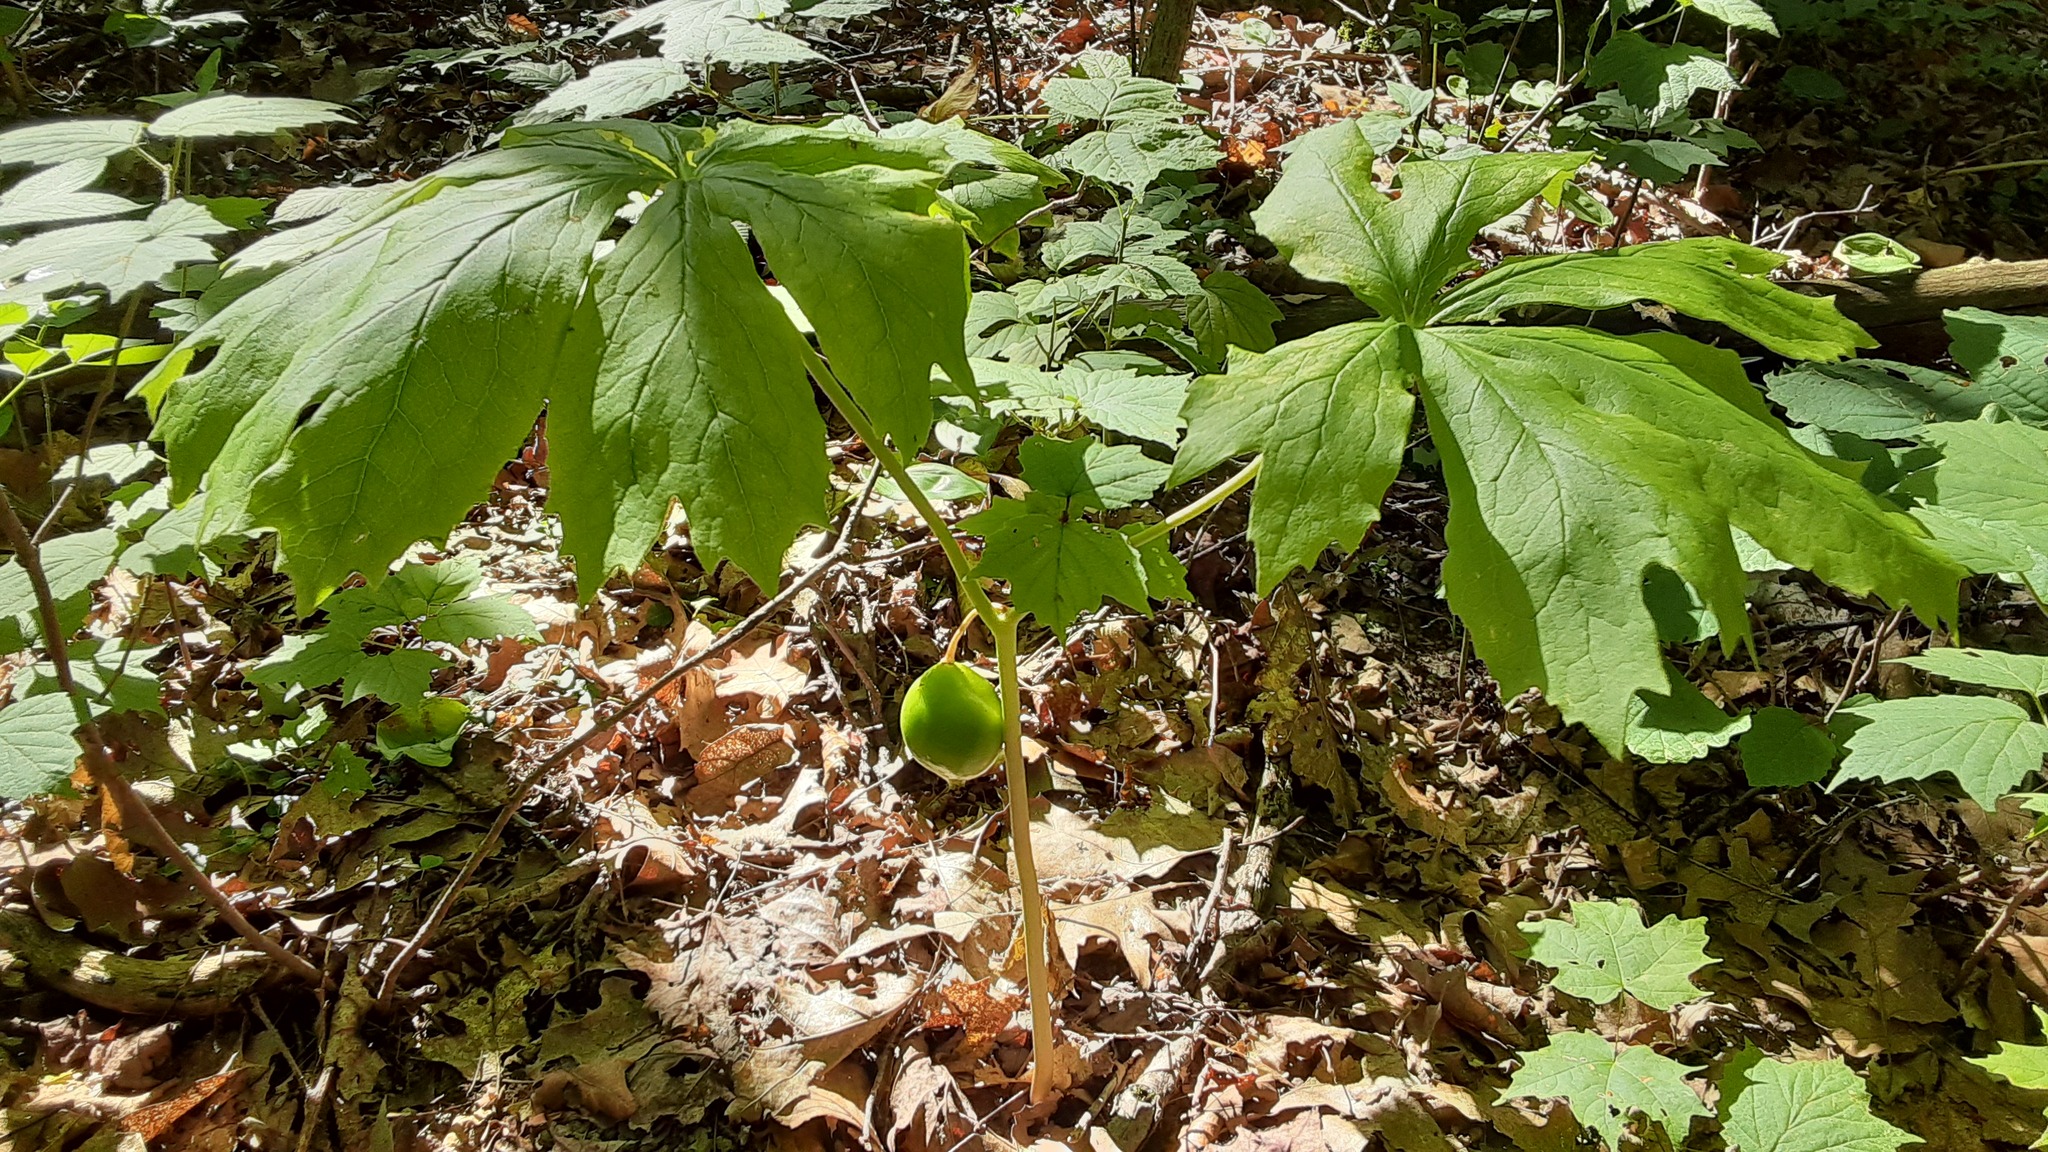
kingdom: Plantae
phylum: Tracheophyta
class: Magnoliopsida
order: Ranunculales
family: Berberidaceae
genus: Podophyllum
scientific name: Podophyllum peltatum
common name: Wild mandrake
